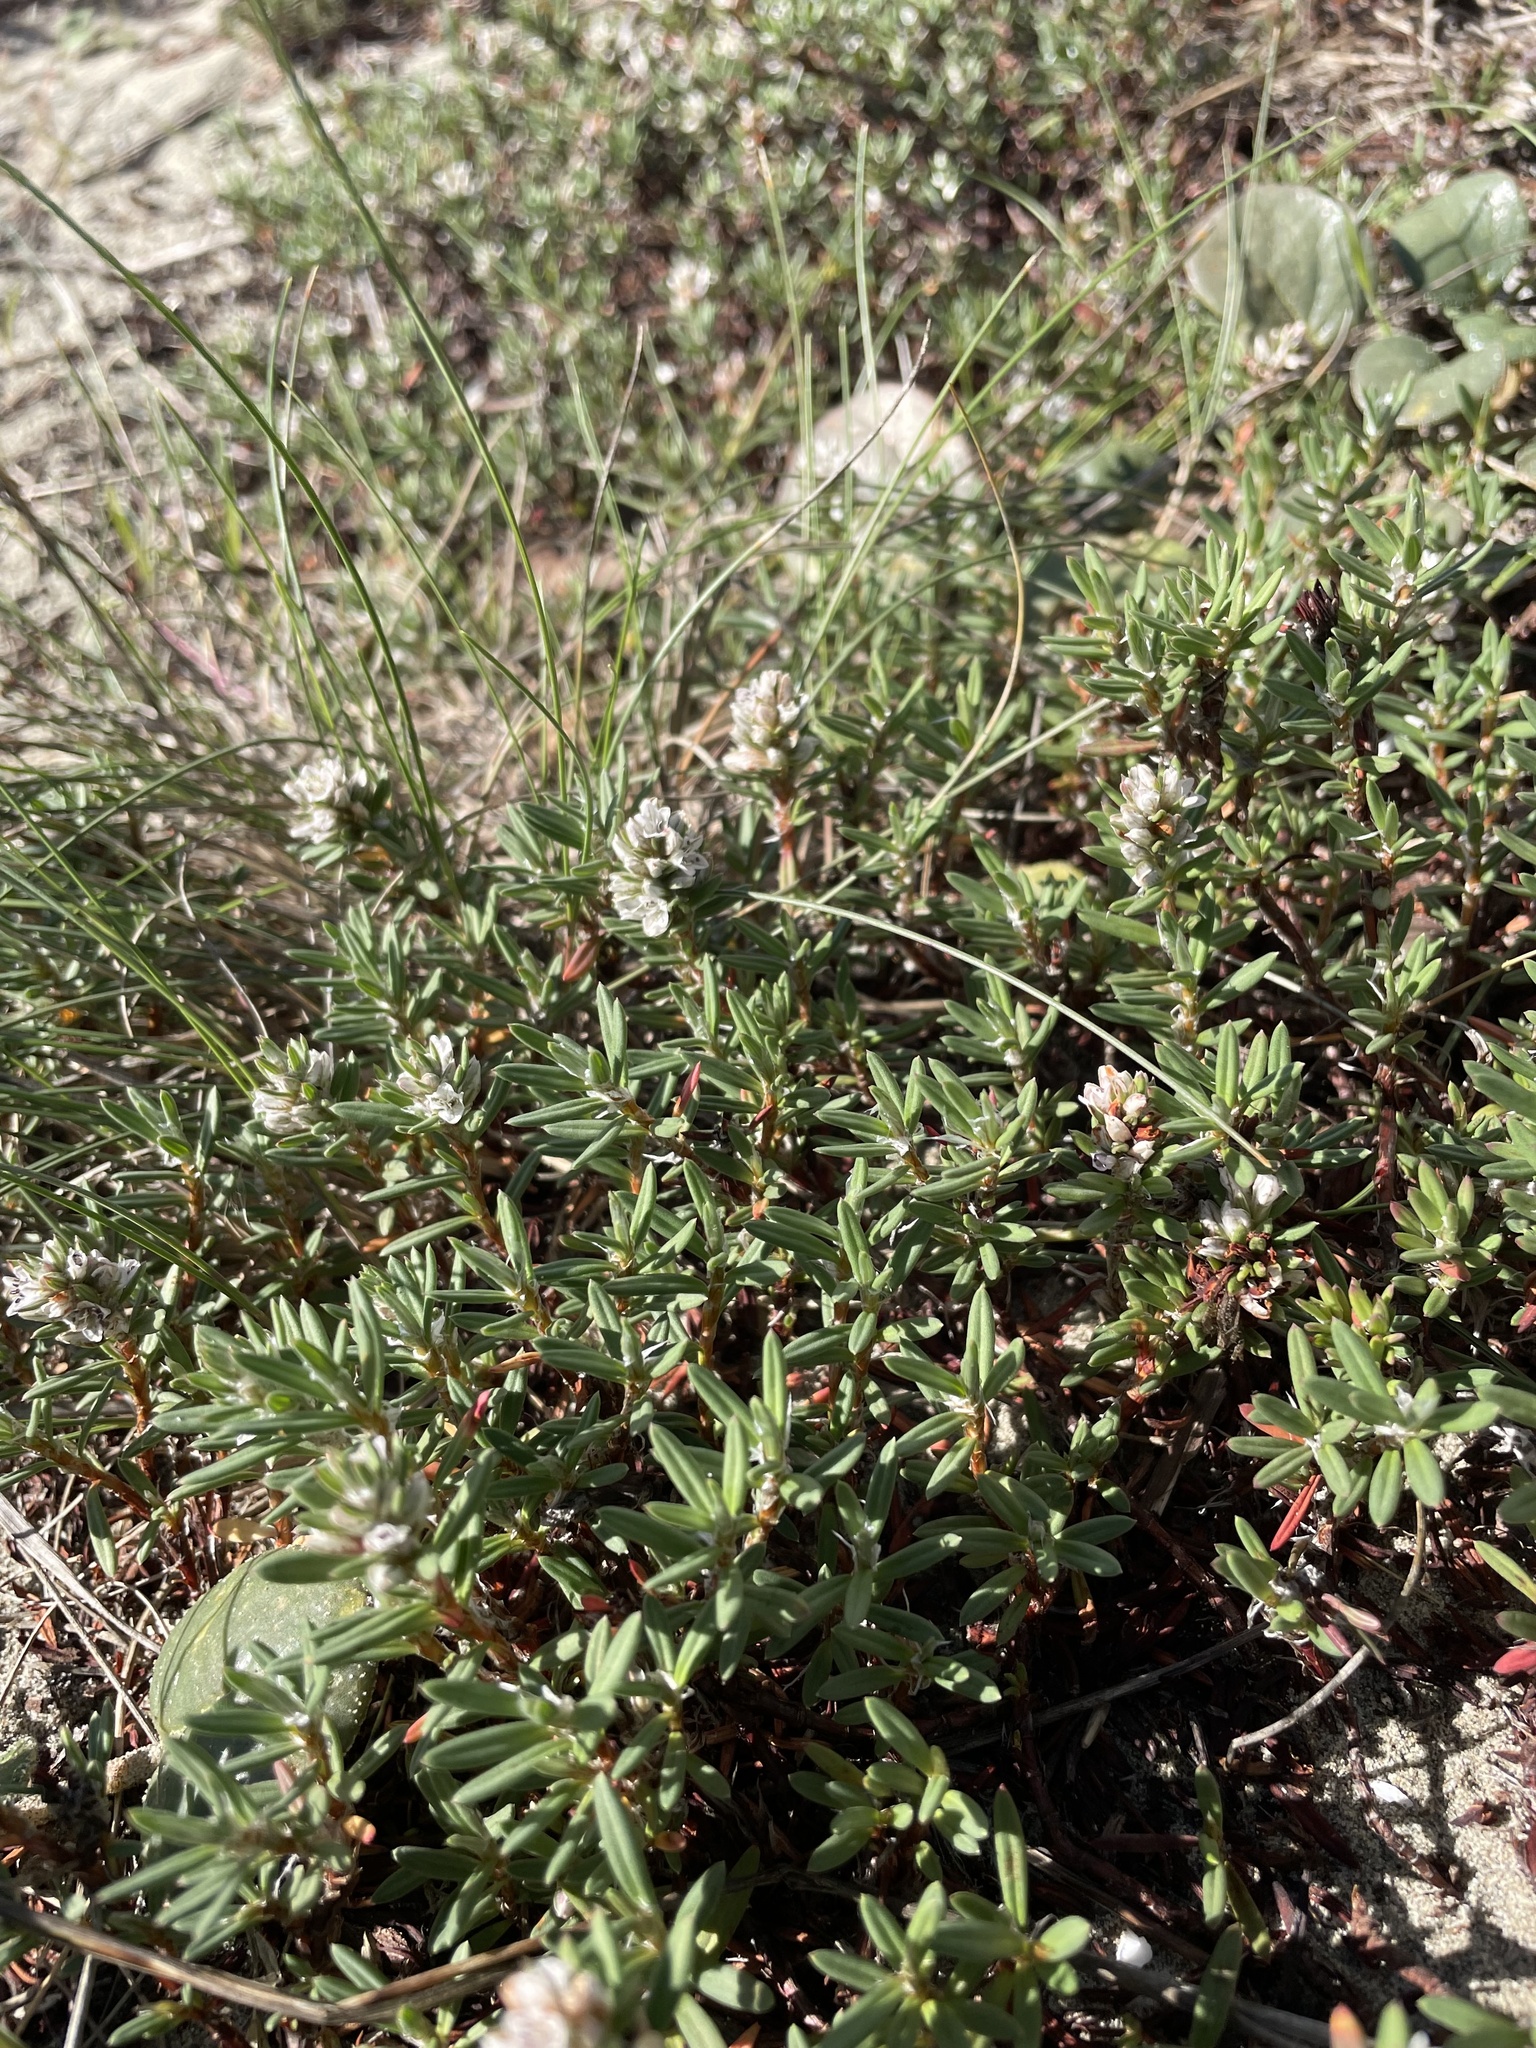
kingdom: Plantae
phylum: Tracheophyta
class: Magnoliopsida
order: Caryophyllales
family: Polygonaceae
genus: Polygonum
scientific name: Polygonum paronychia
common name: Dune knotweed
